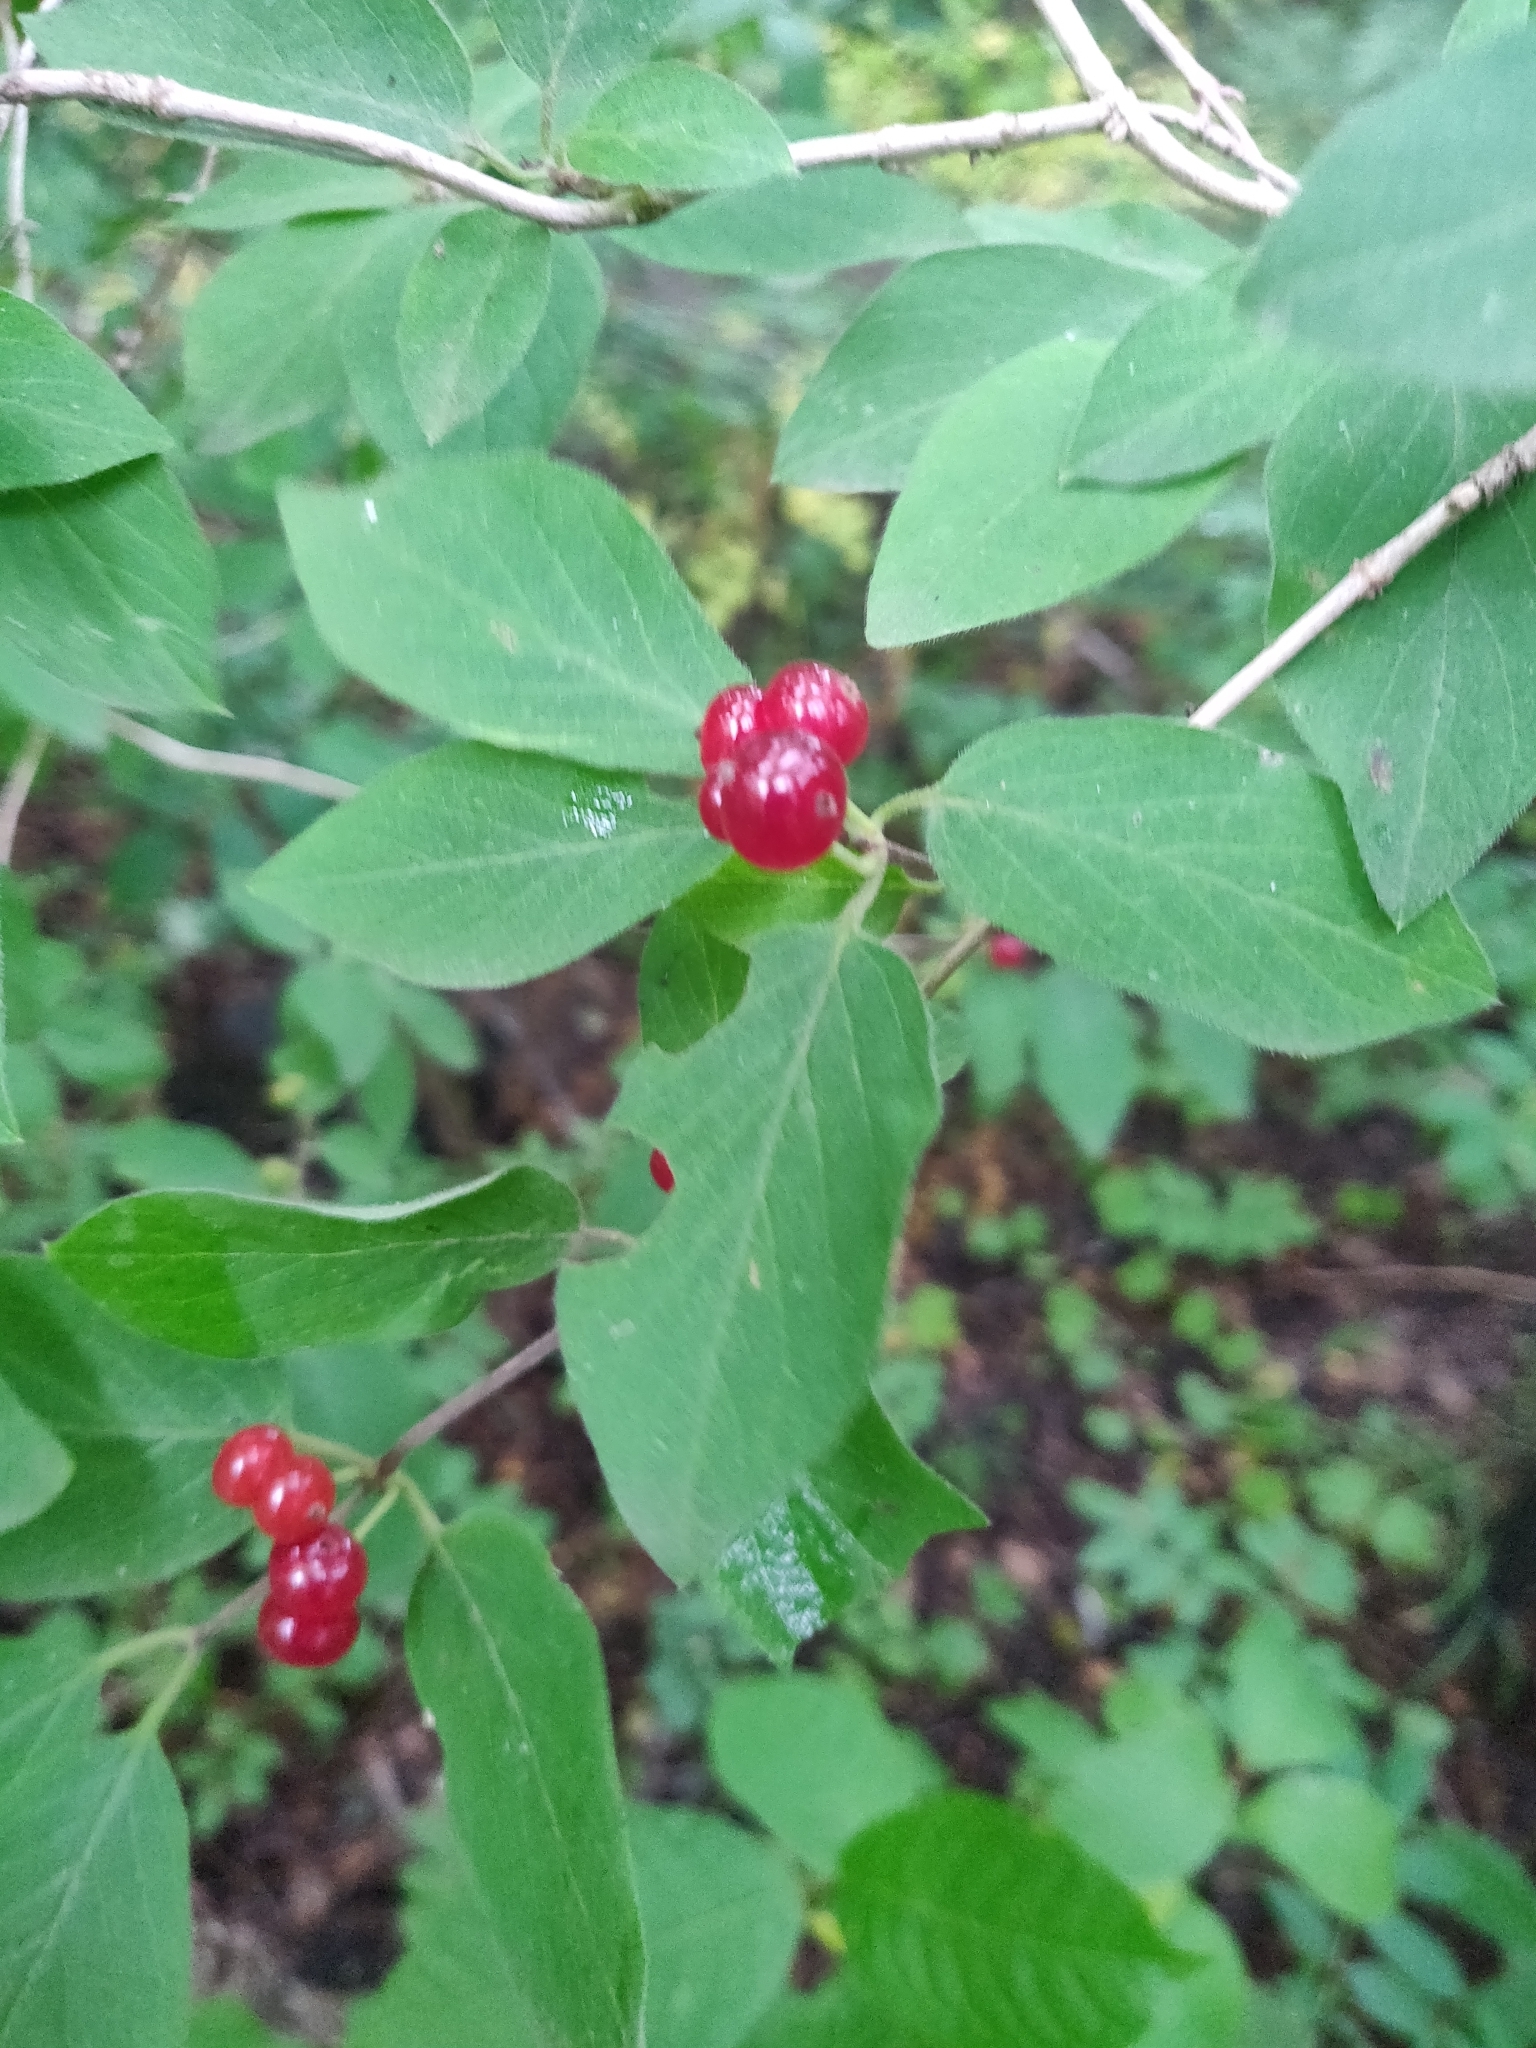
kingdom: Plantae
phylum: Tracheophyta
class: Magnoliopsida
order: Dipsacales
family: Caprifoliaceae
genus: Lonicera
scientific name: Lonicera xylosteum
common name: Fly honeysuckle
